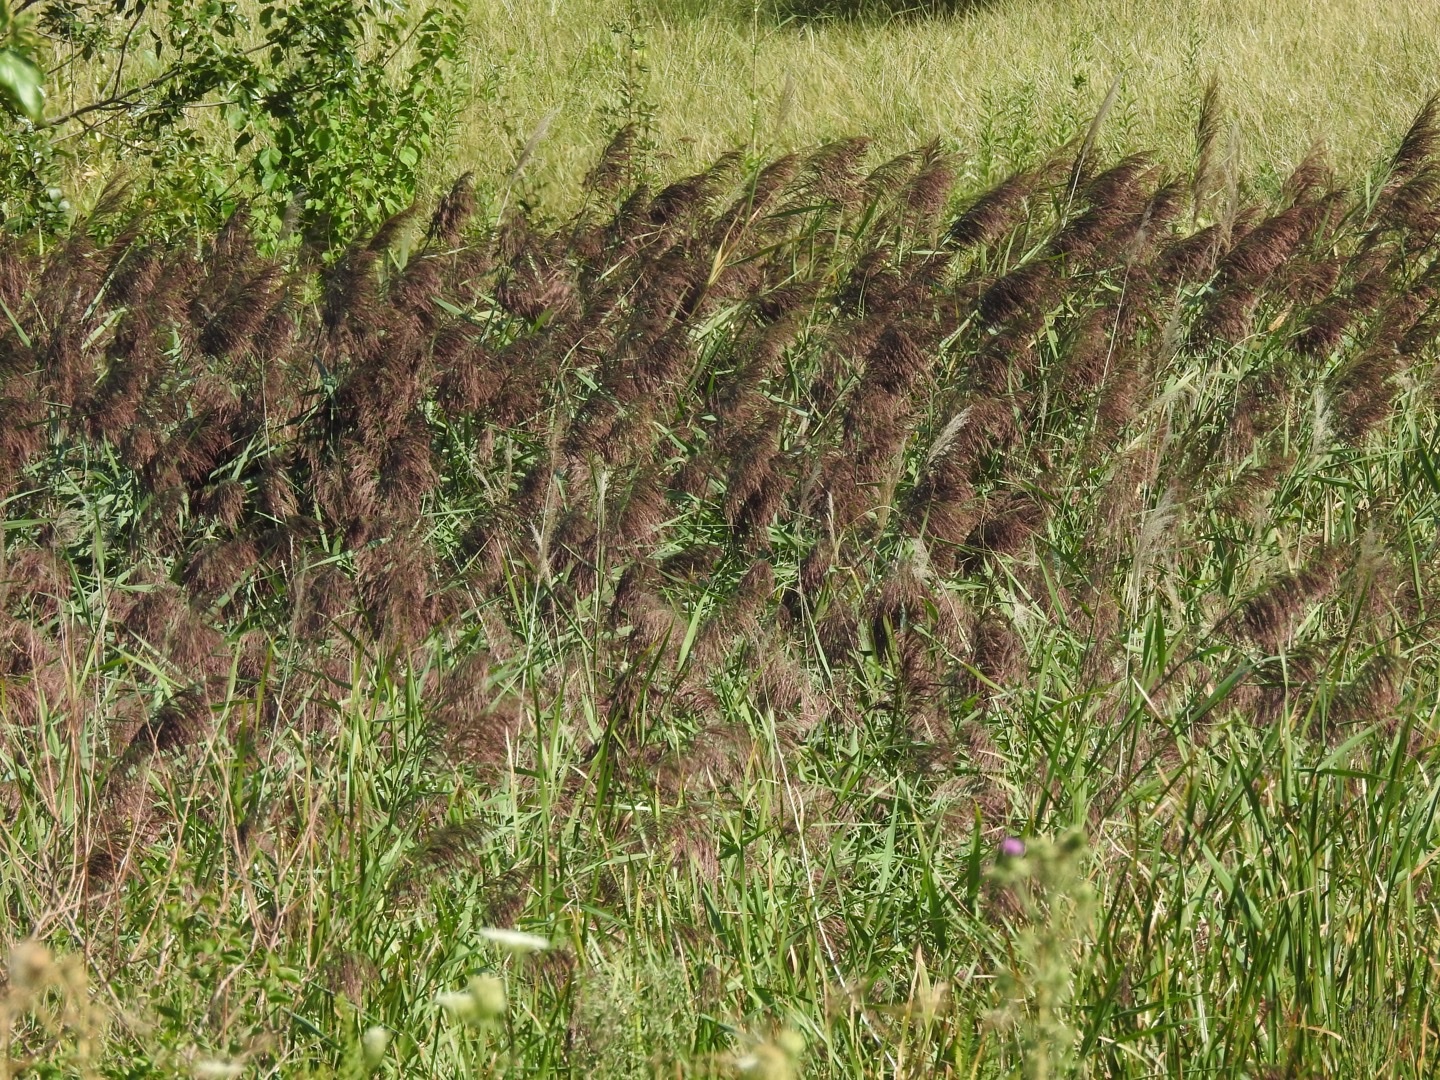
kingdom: Plantae
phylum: Tracheophyta
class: Liliopsida
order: Poales
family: Poaceae
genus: Phragmites
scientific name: Phragmites australis
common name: Common reed
